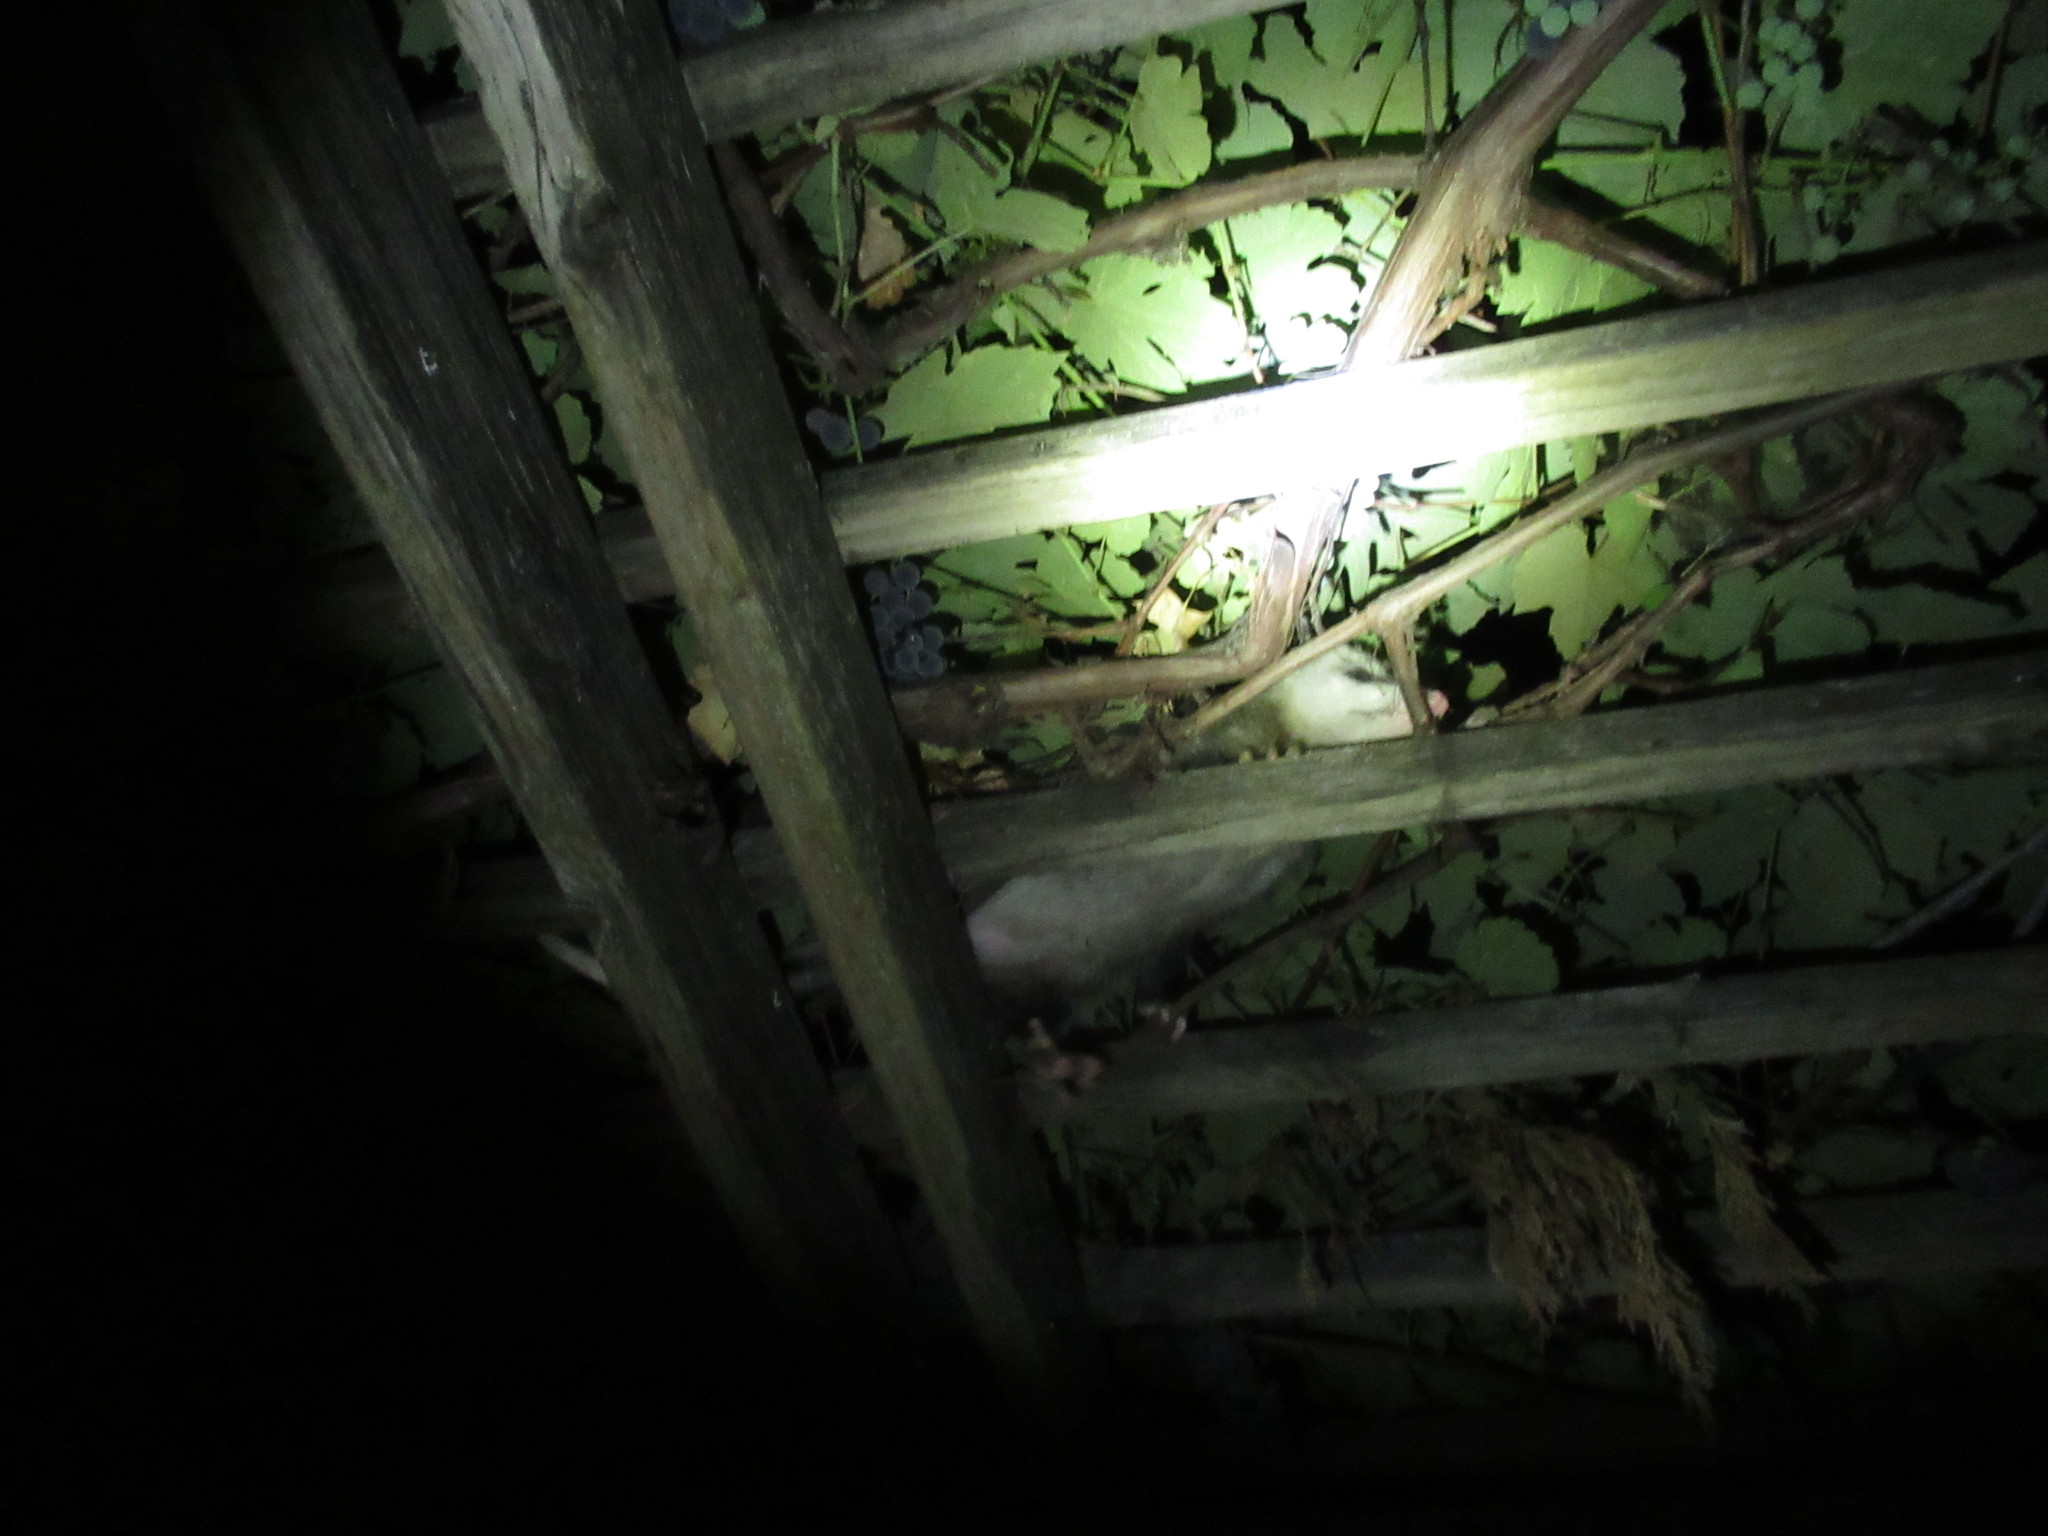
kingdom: Animalia
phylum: Chordata
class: Mammalia
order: Didelphimorphia
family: Didelphidae
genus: Didelphis
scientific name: Didelphis virginiana
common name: Virginia opossum
